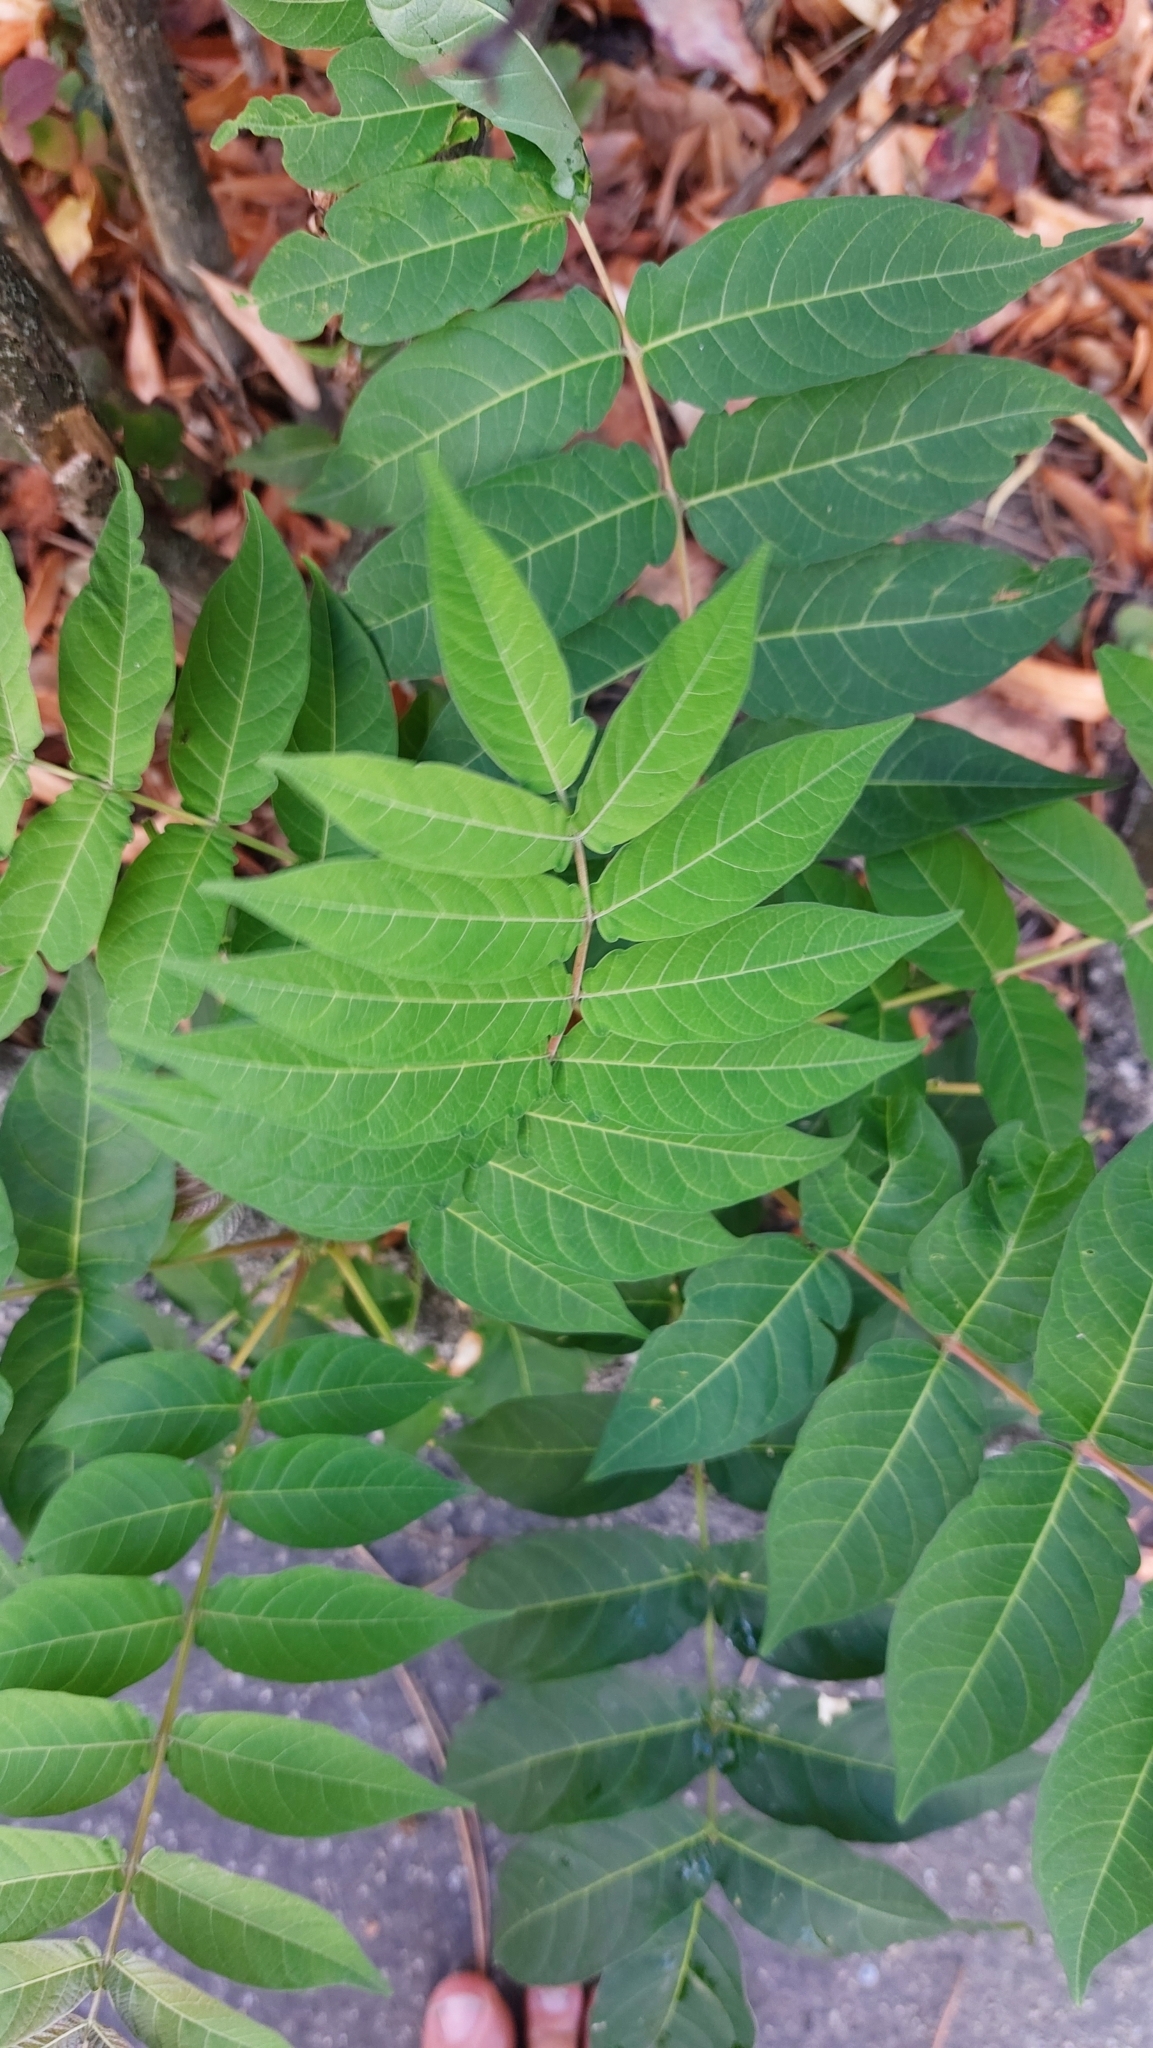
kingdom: Plantae
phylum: Tracheophyta
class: Magnoliopsida
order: Sapindales
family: Simaroubaceae
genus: Ailanthus
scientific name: Ailanthus altissima
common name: Tree-of-heaven
